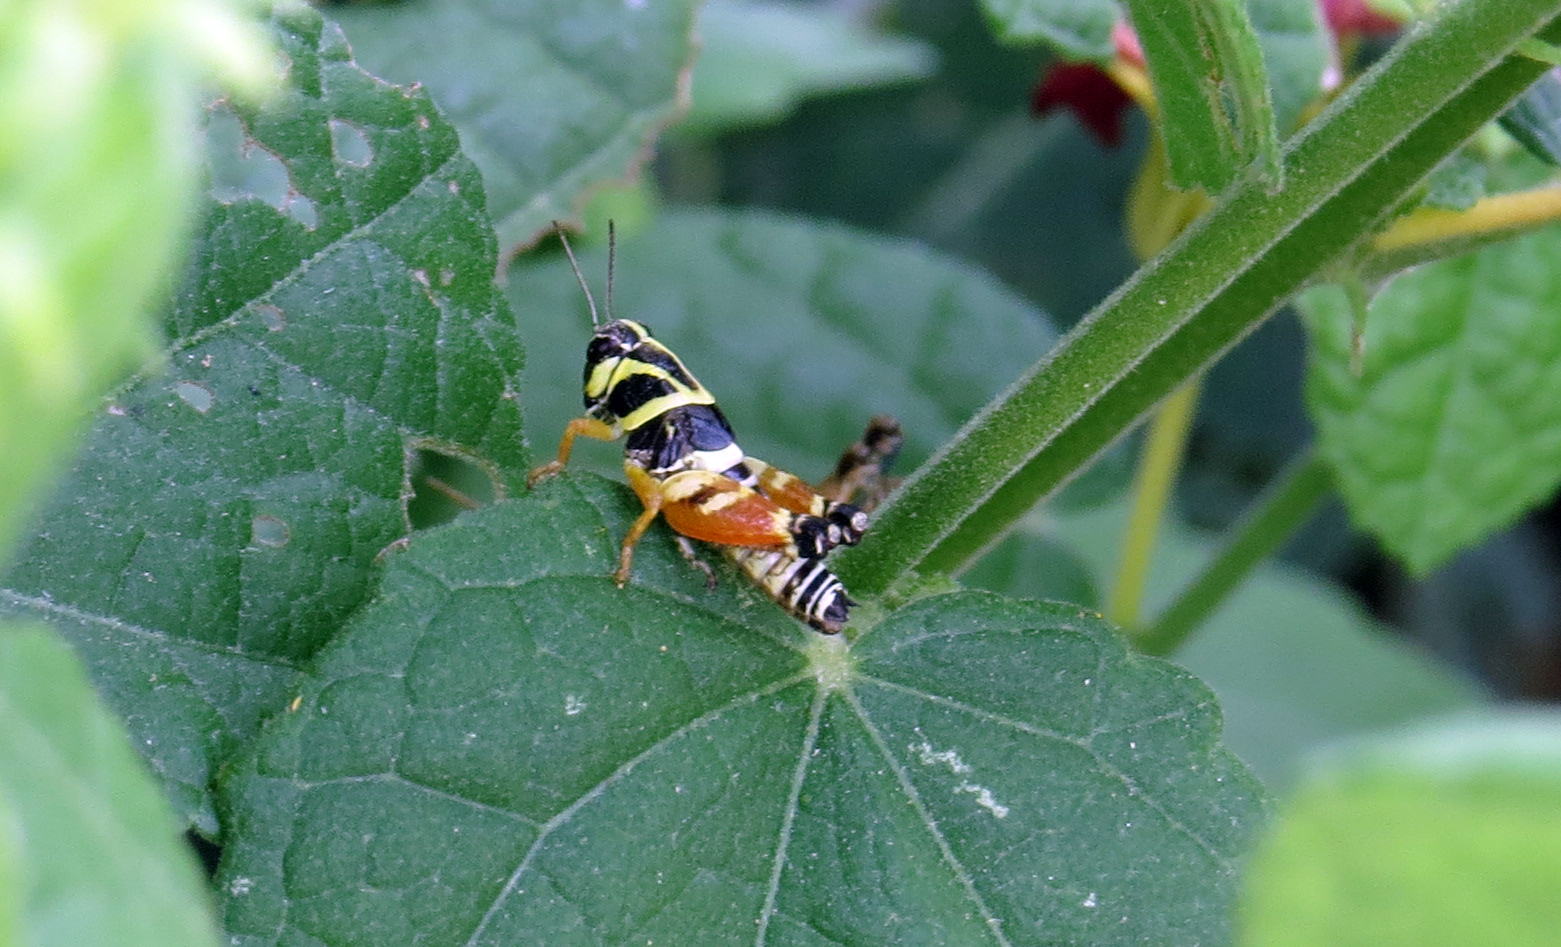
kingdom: Animalia
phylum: Arthropoda
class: Insecta
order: Orthoptera
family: Acrididae
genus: Aidemona
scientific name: Aidemona azteca
